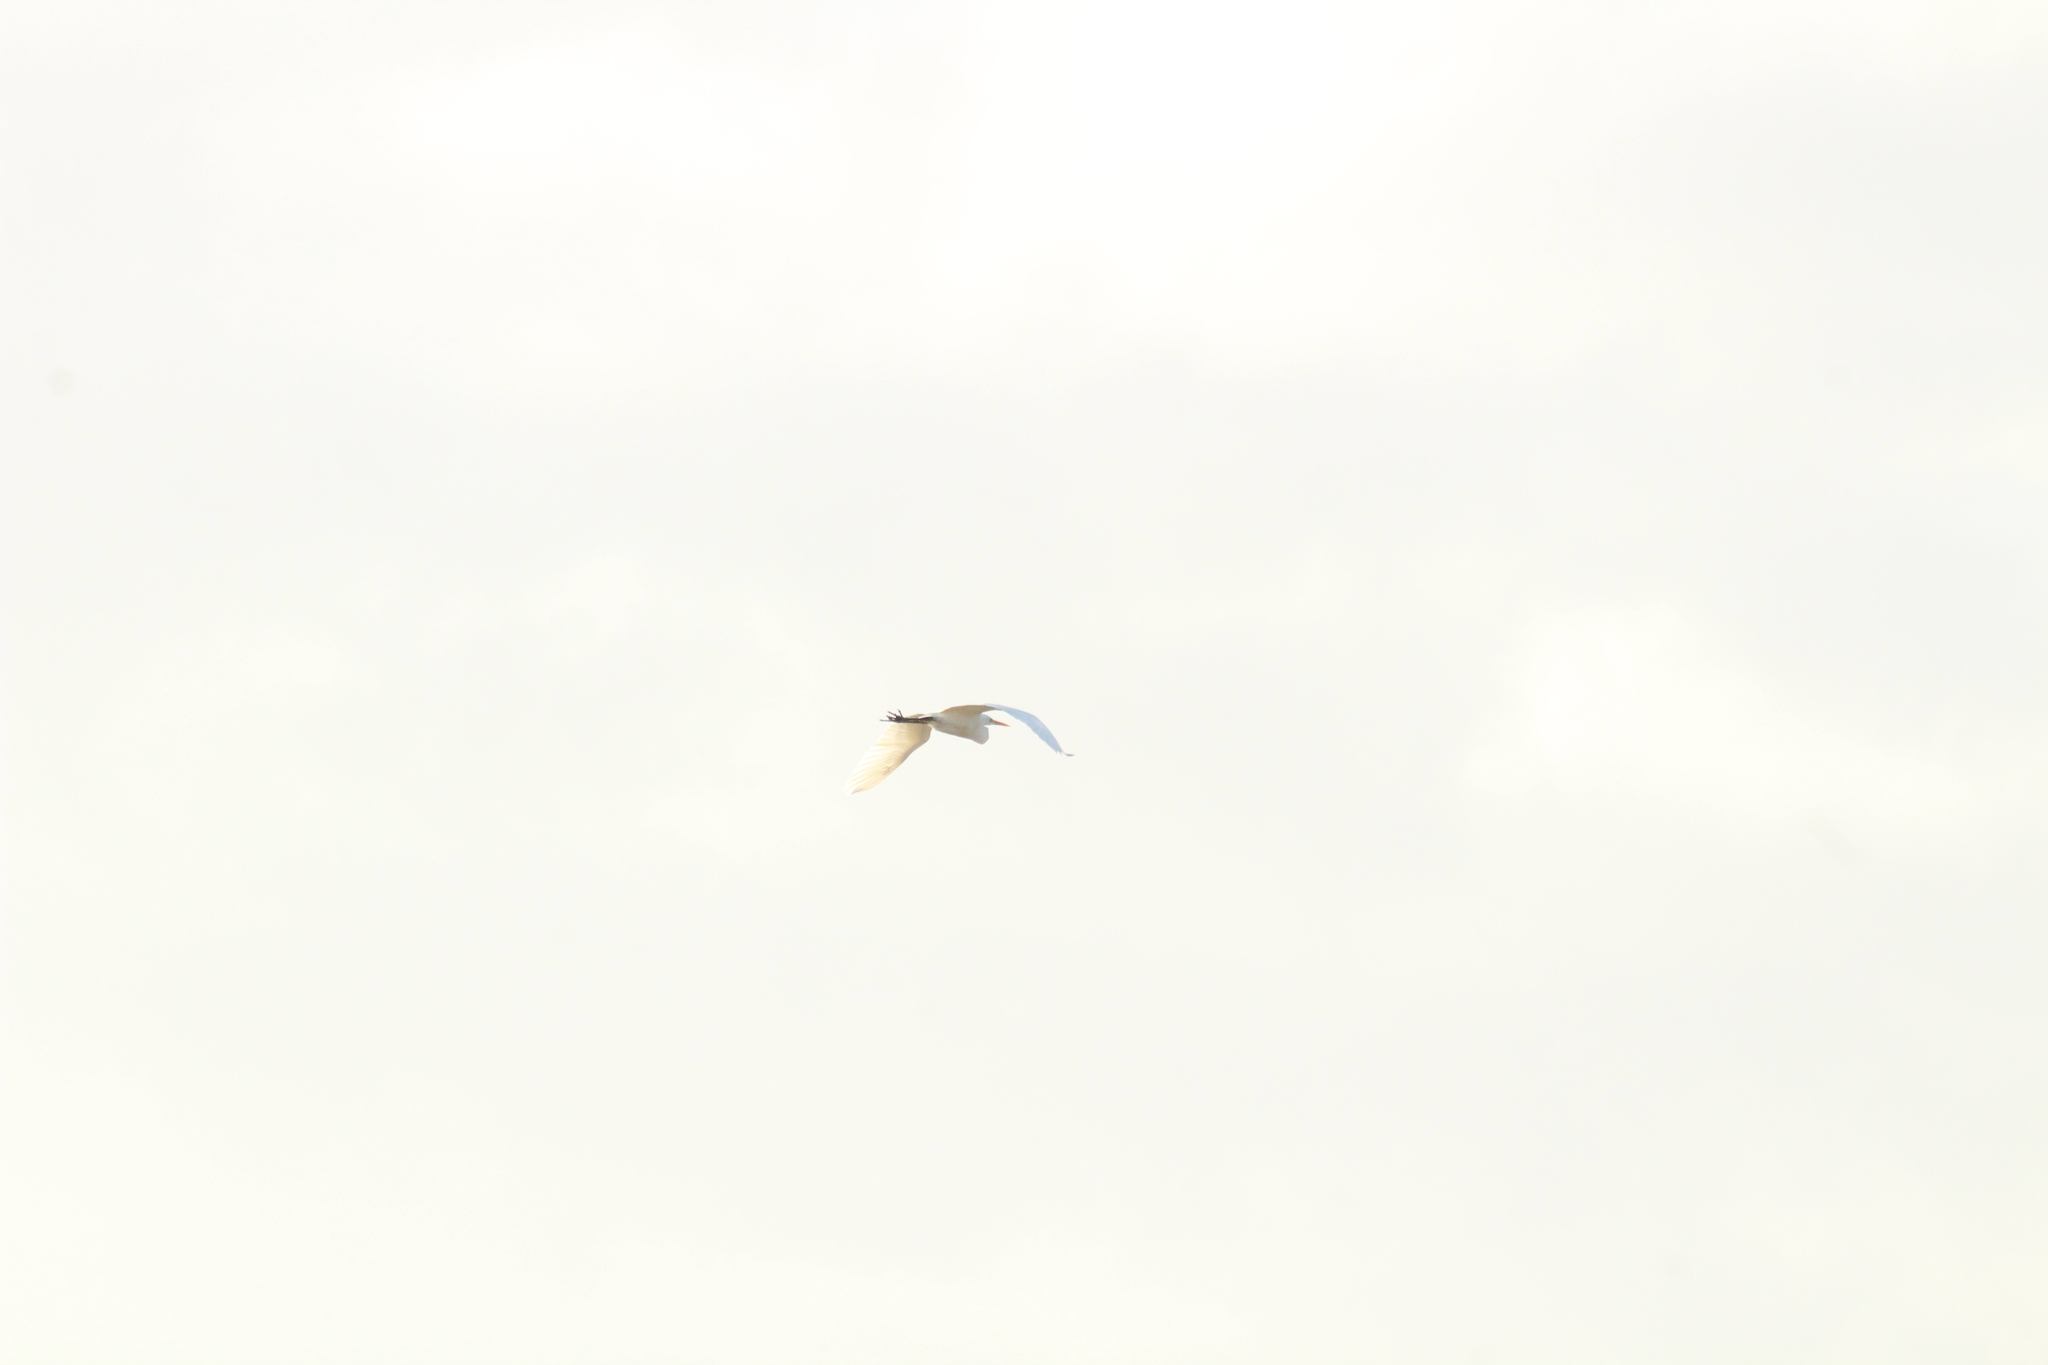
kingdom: Animalia
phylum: Chordata
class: Aves
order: Pelecaniformes
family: Ardeidae
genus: Ardea
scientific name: Ardea alba
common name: Great egret
